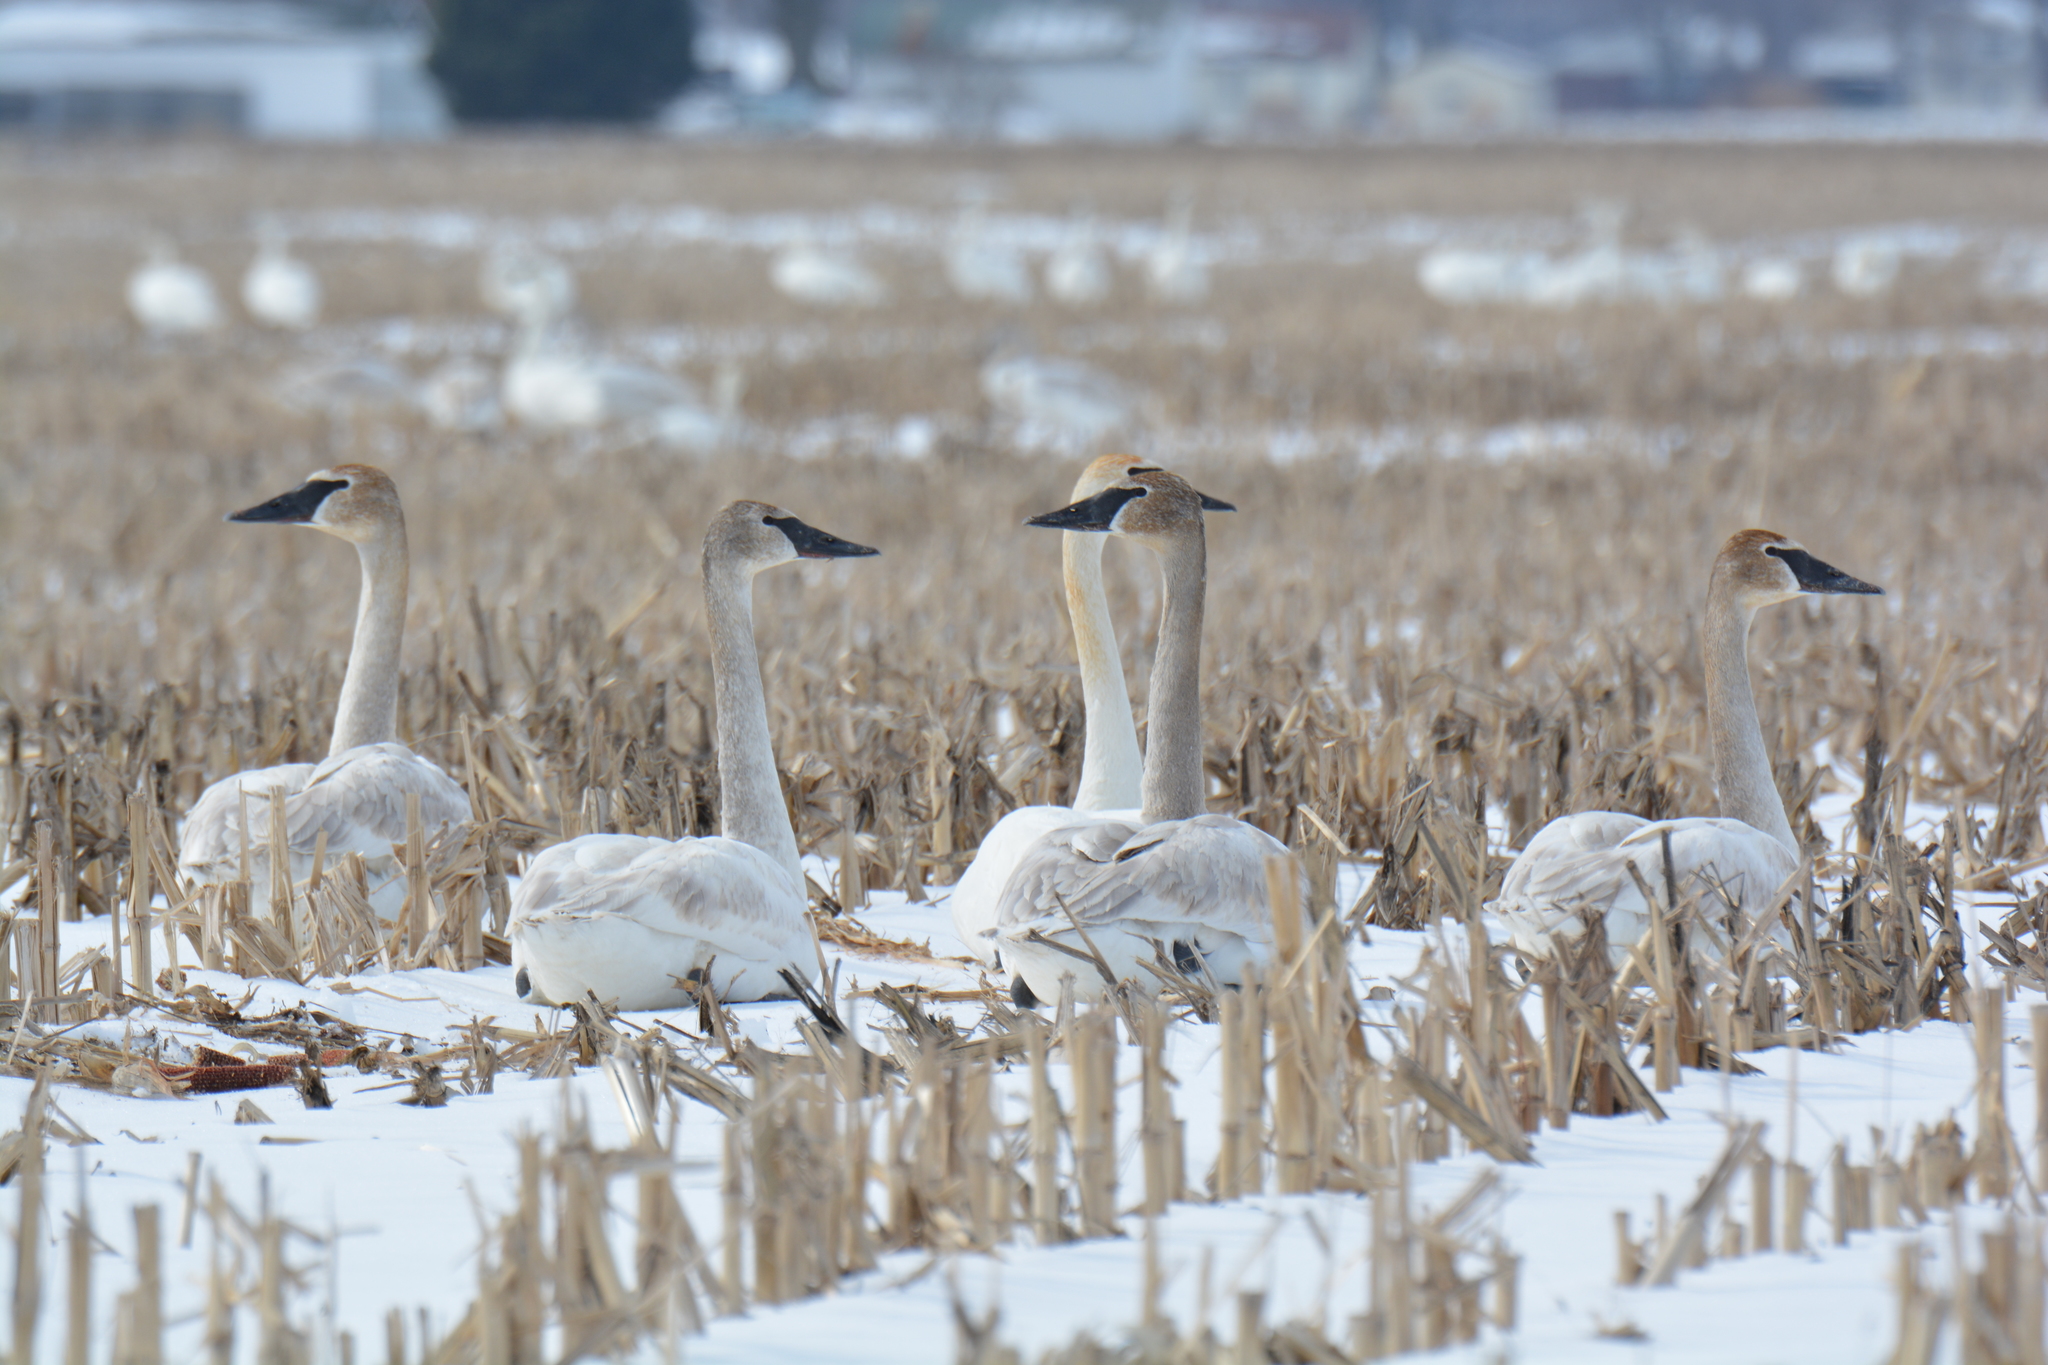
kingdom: Animalia
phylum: Chordata
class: Aves
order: Anseriformes
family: Anatidae
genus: Cygnus
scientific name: Cygnus buccinator
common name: Trumpeter swan
